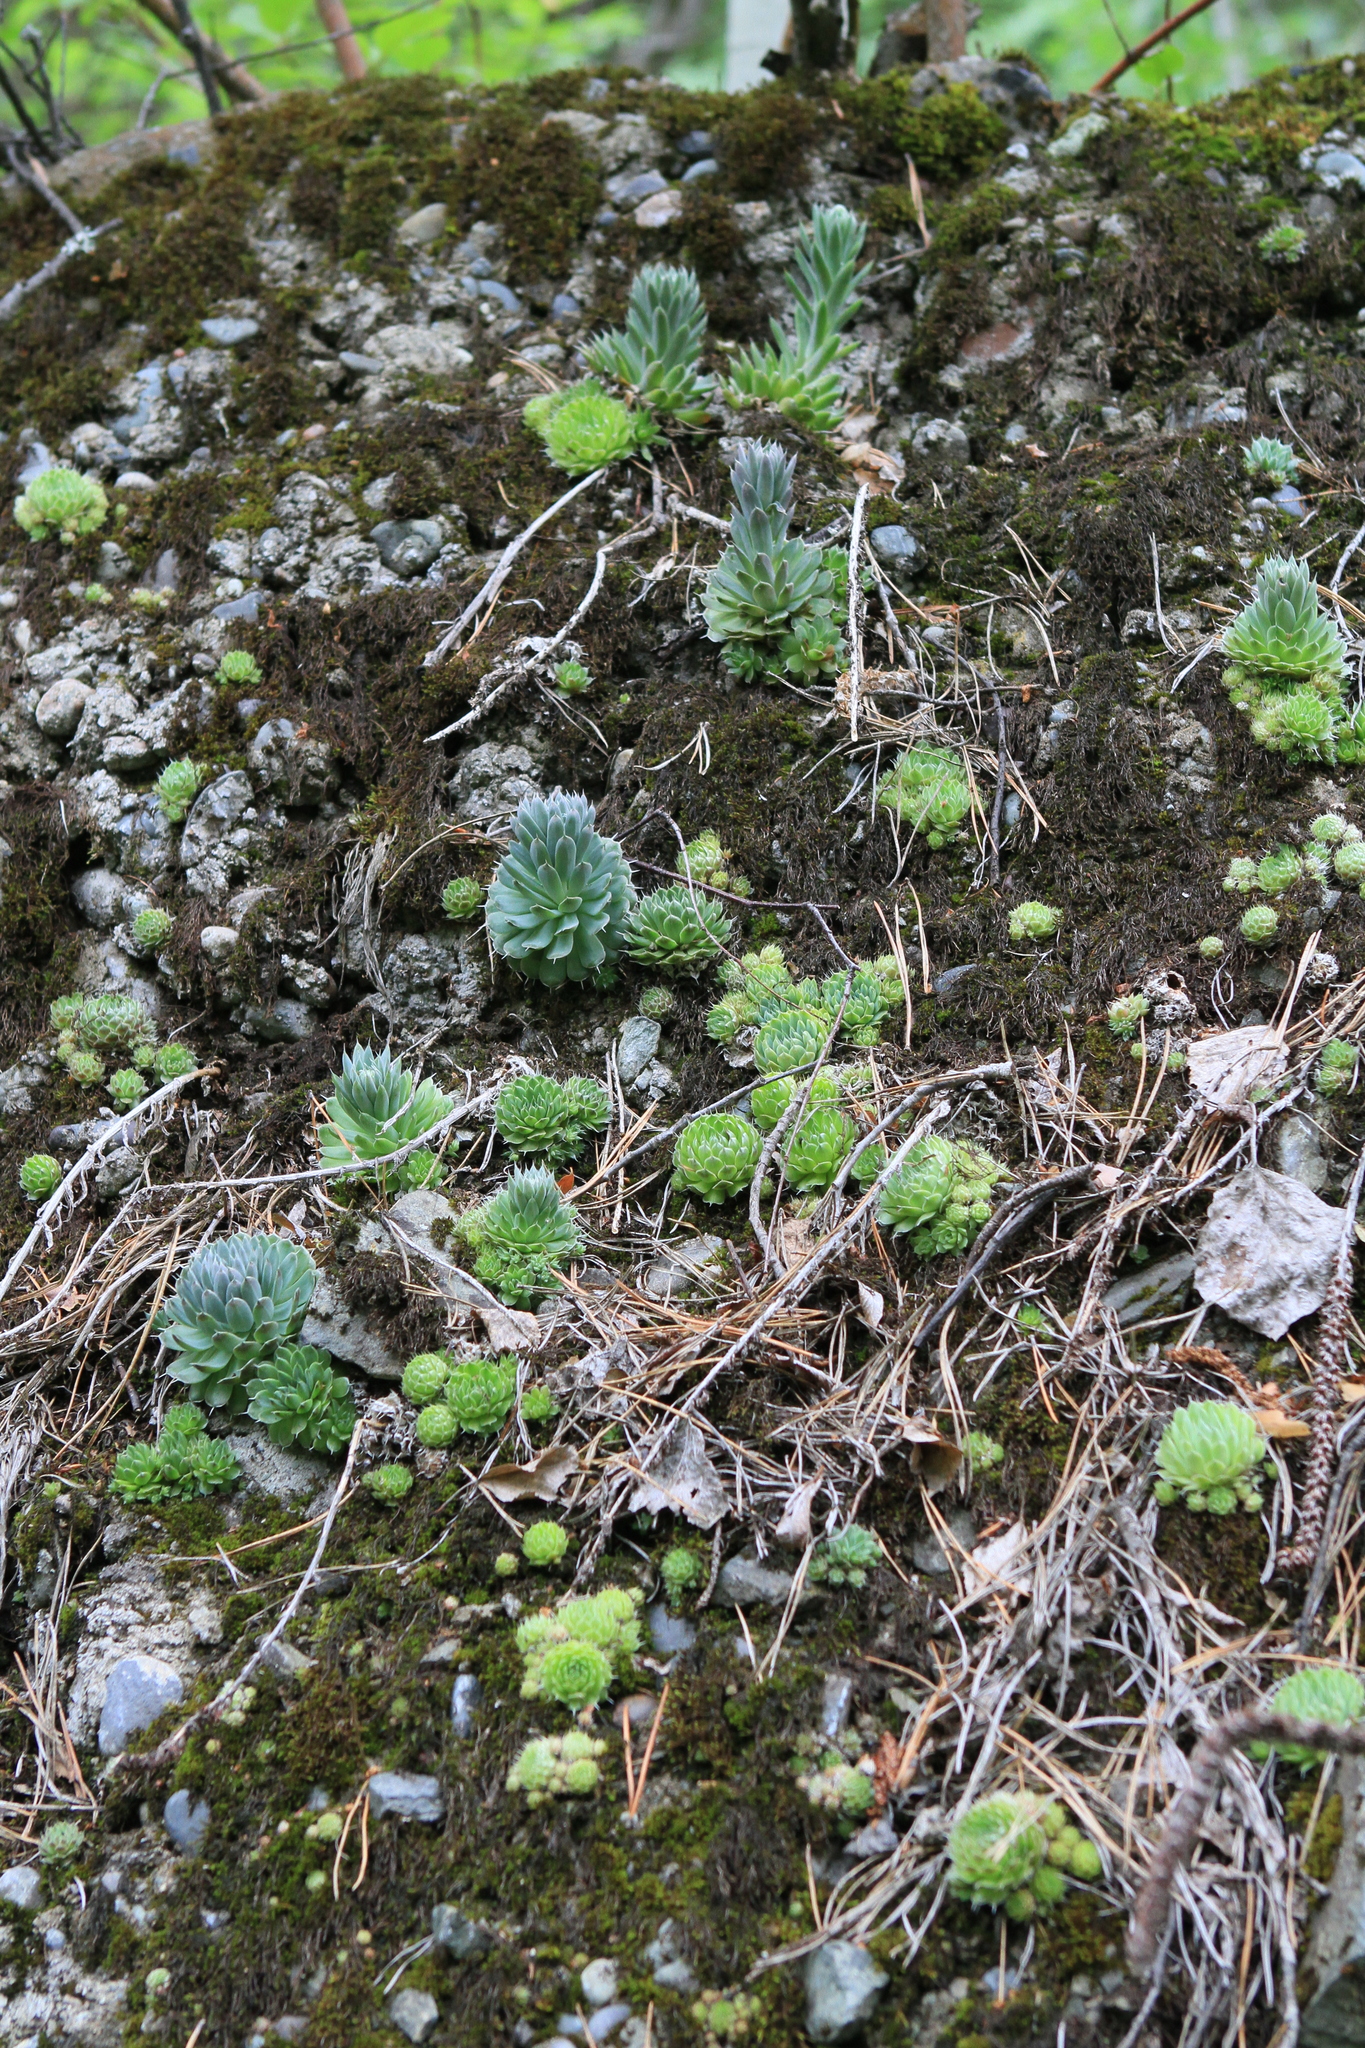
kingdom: Plantae
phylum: Tracheophyta
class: Magnoliopsida
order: Saxifragales
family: Crassulaceae
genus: Orostachys
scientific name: Orostachys spinosa
